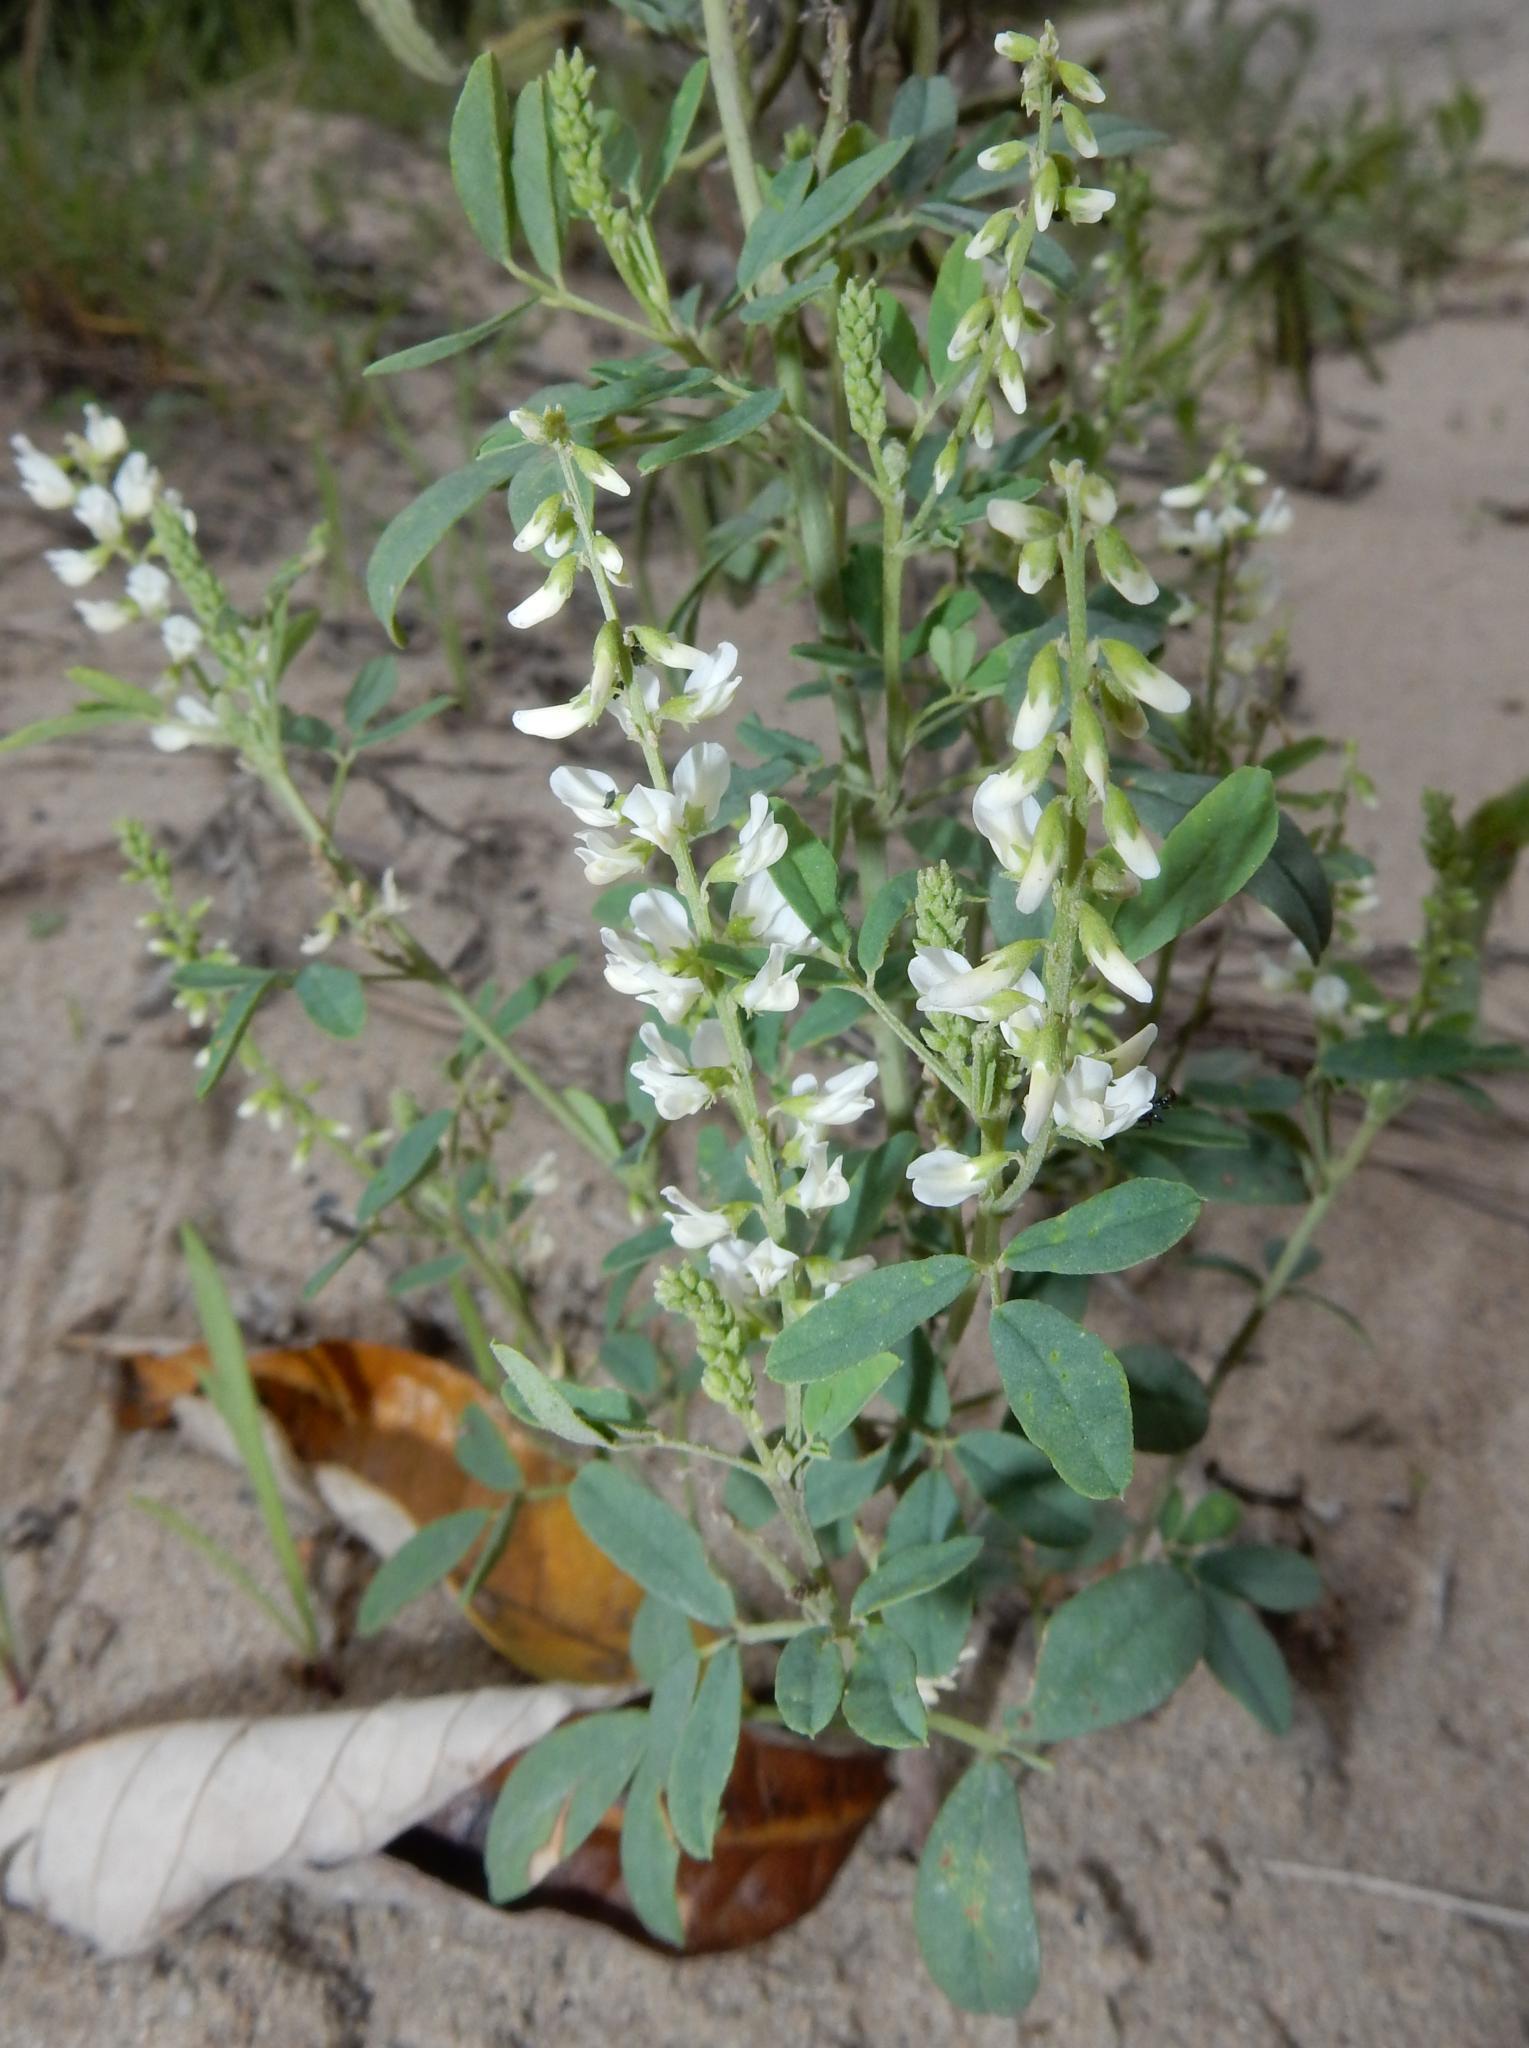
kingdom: Plantae
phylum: Tracheophyta
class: Magnoliopsida
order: Fabales
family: Fabaceae
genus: Melilotus
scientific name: Melilotus albus
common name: White melilot
